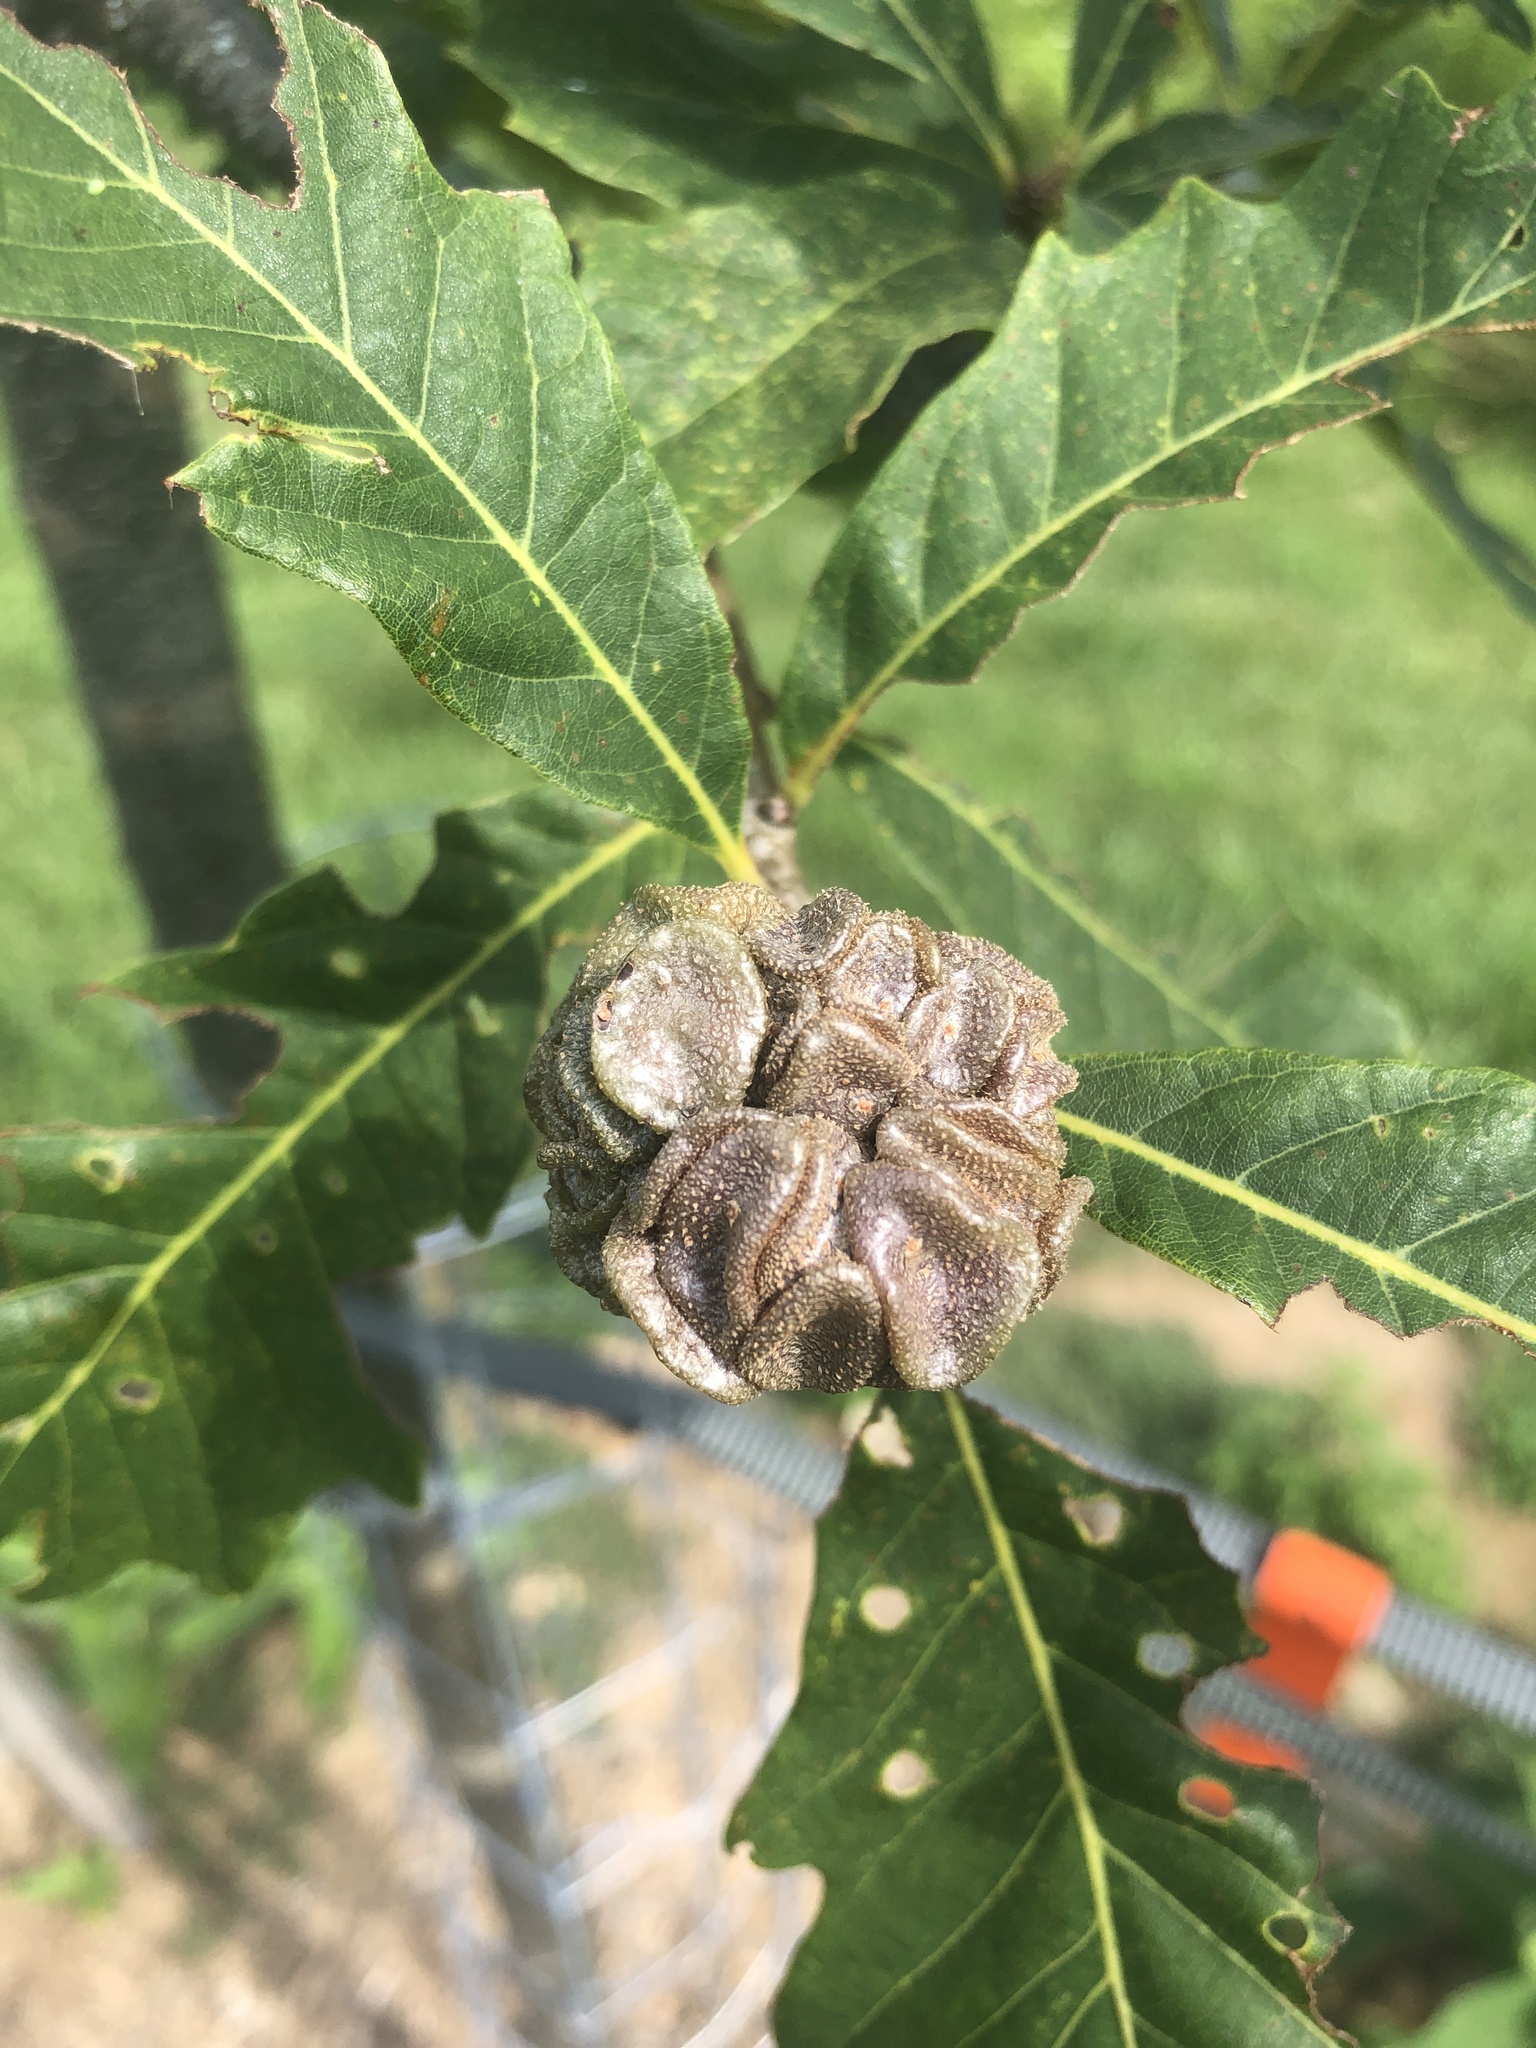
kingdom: Animalia
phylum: Arthropoda
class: Insecta
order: Hymenoptera
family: Cynipidae
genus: Andricus
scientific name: Andricus
